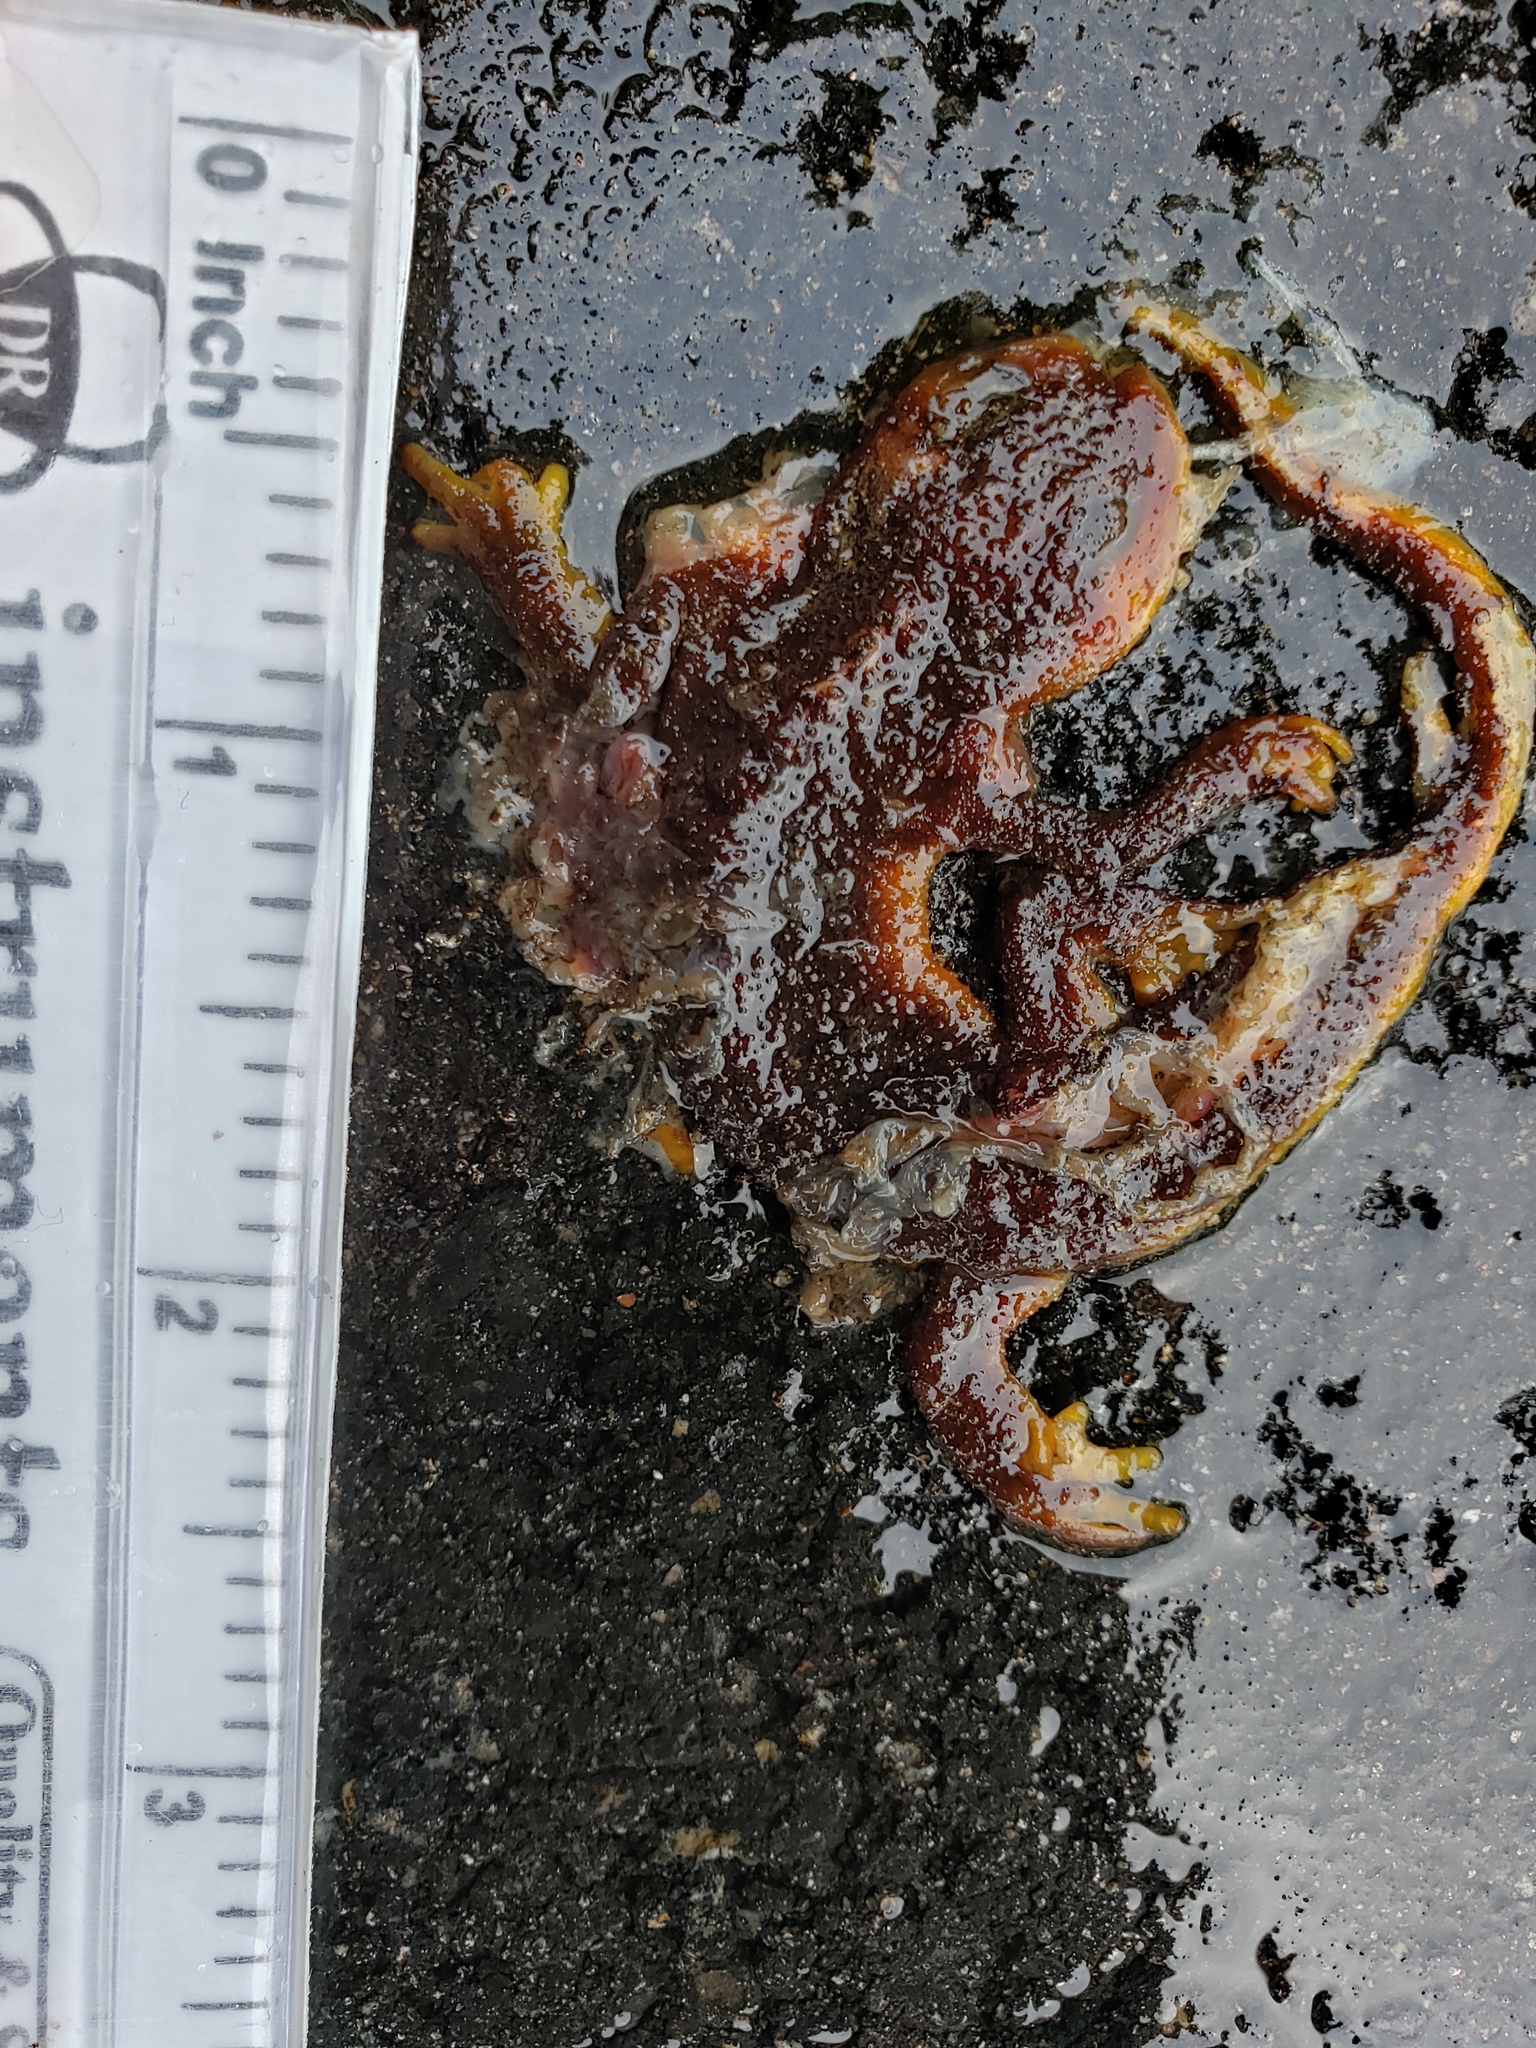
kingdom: Animalia
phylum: Chordata
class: Amphibia
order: Caudata
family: Salamandridae
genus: Taricha
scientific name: Taricha
